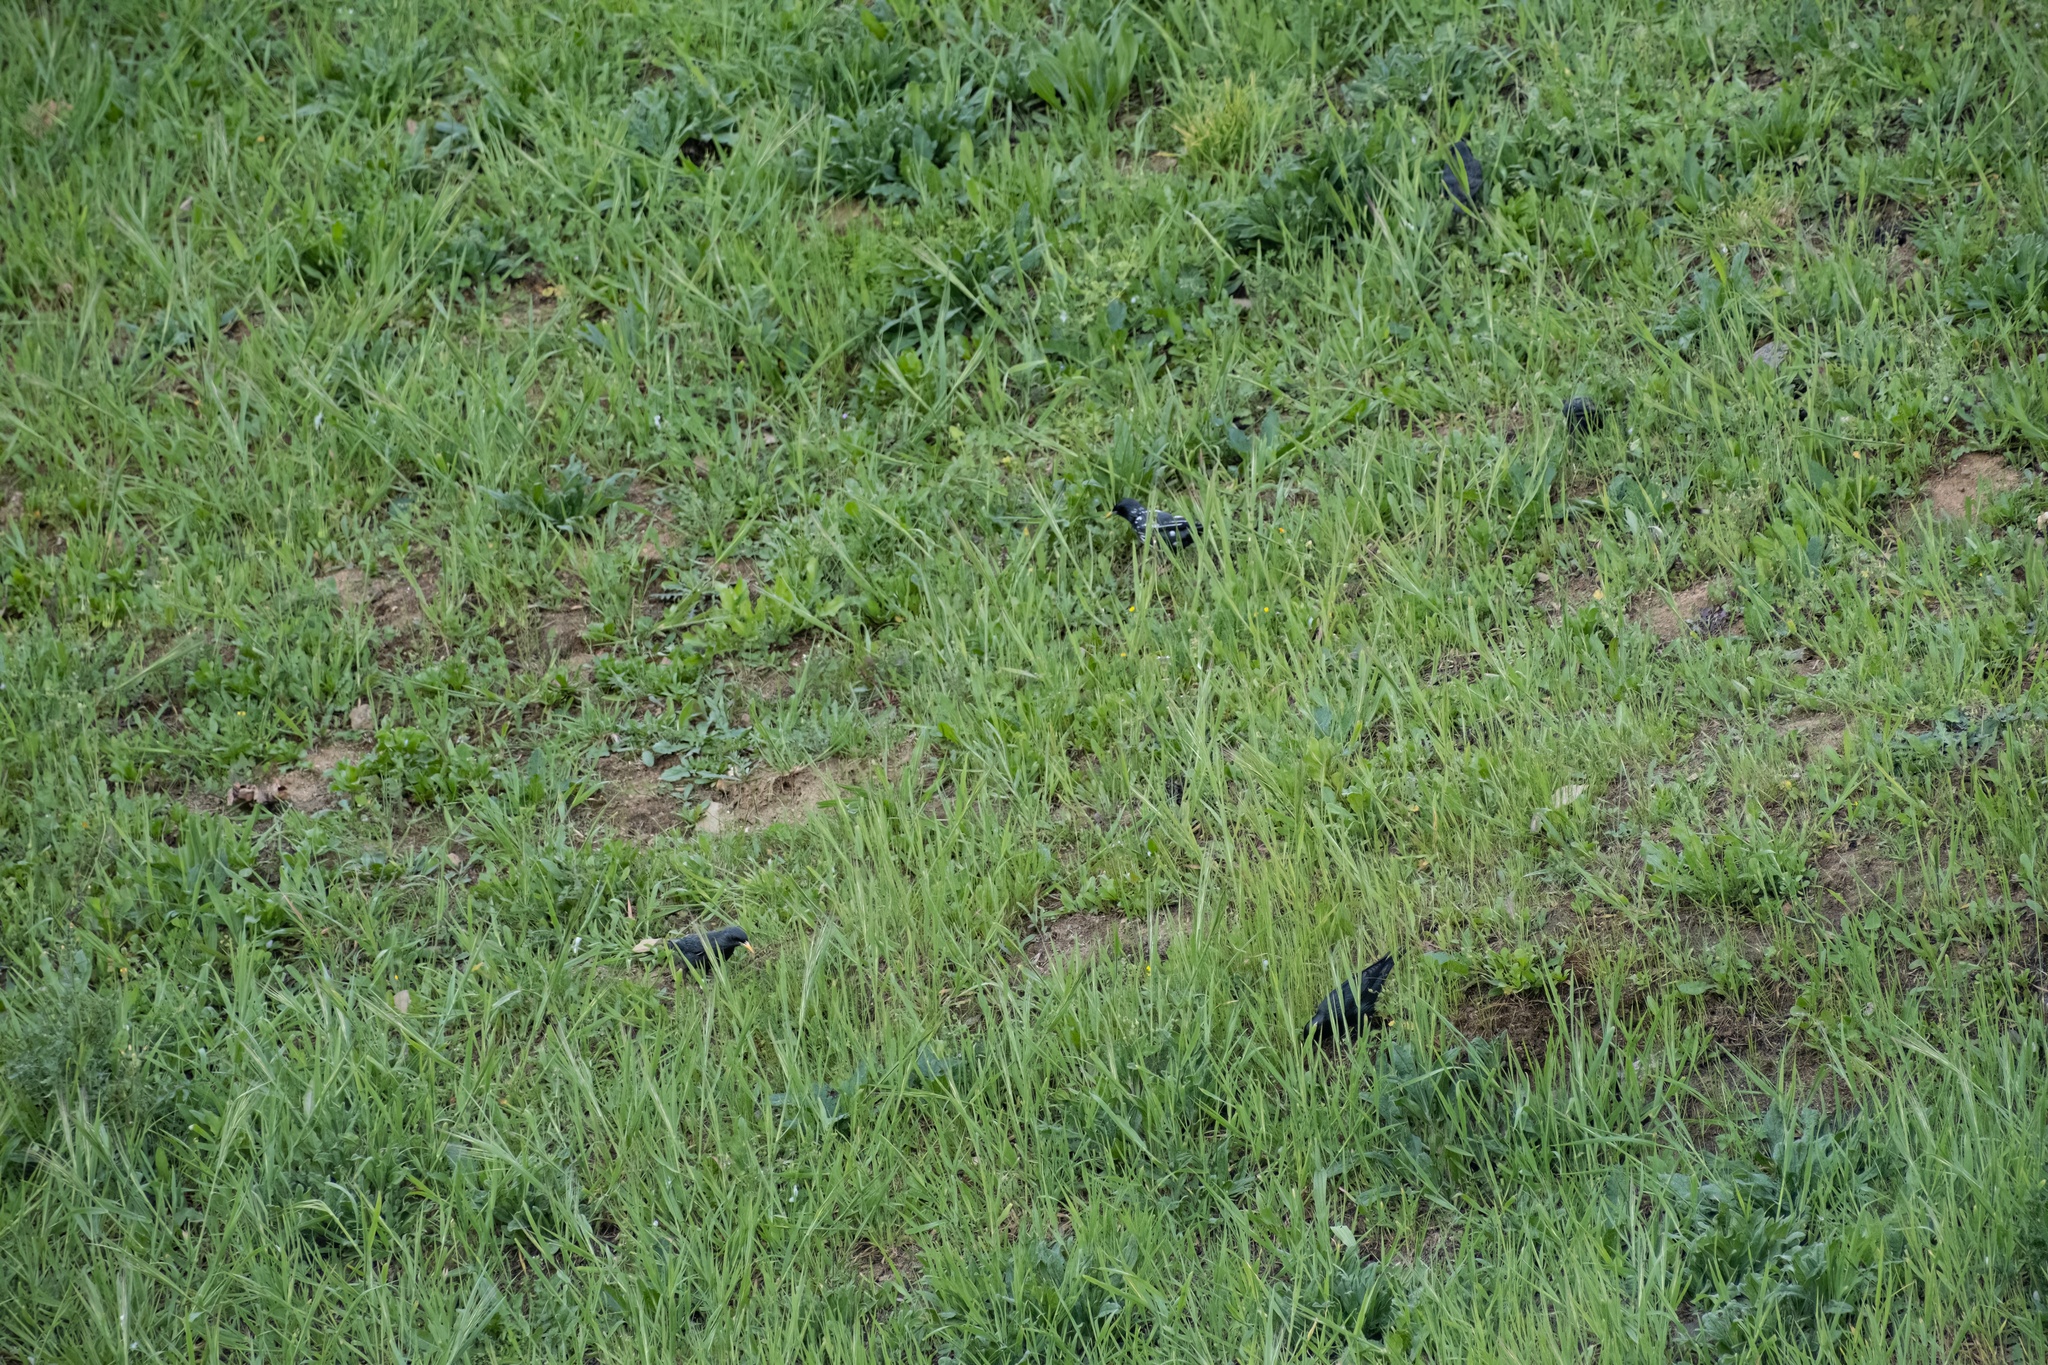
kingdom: Animalia
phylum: Chordata
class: Aves
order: Passeriformes
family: Sturnidae
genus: Sturnus
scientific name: Sturnus unicolor
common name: Spotless starling
